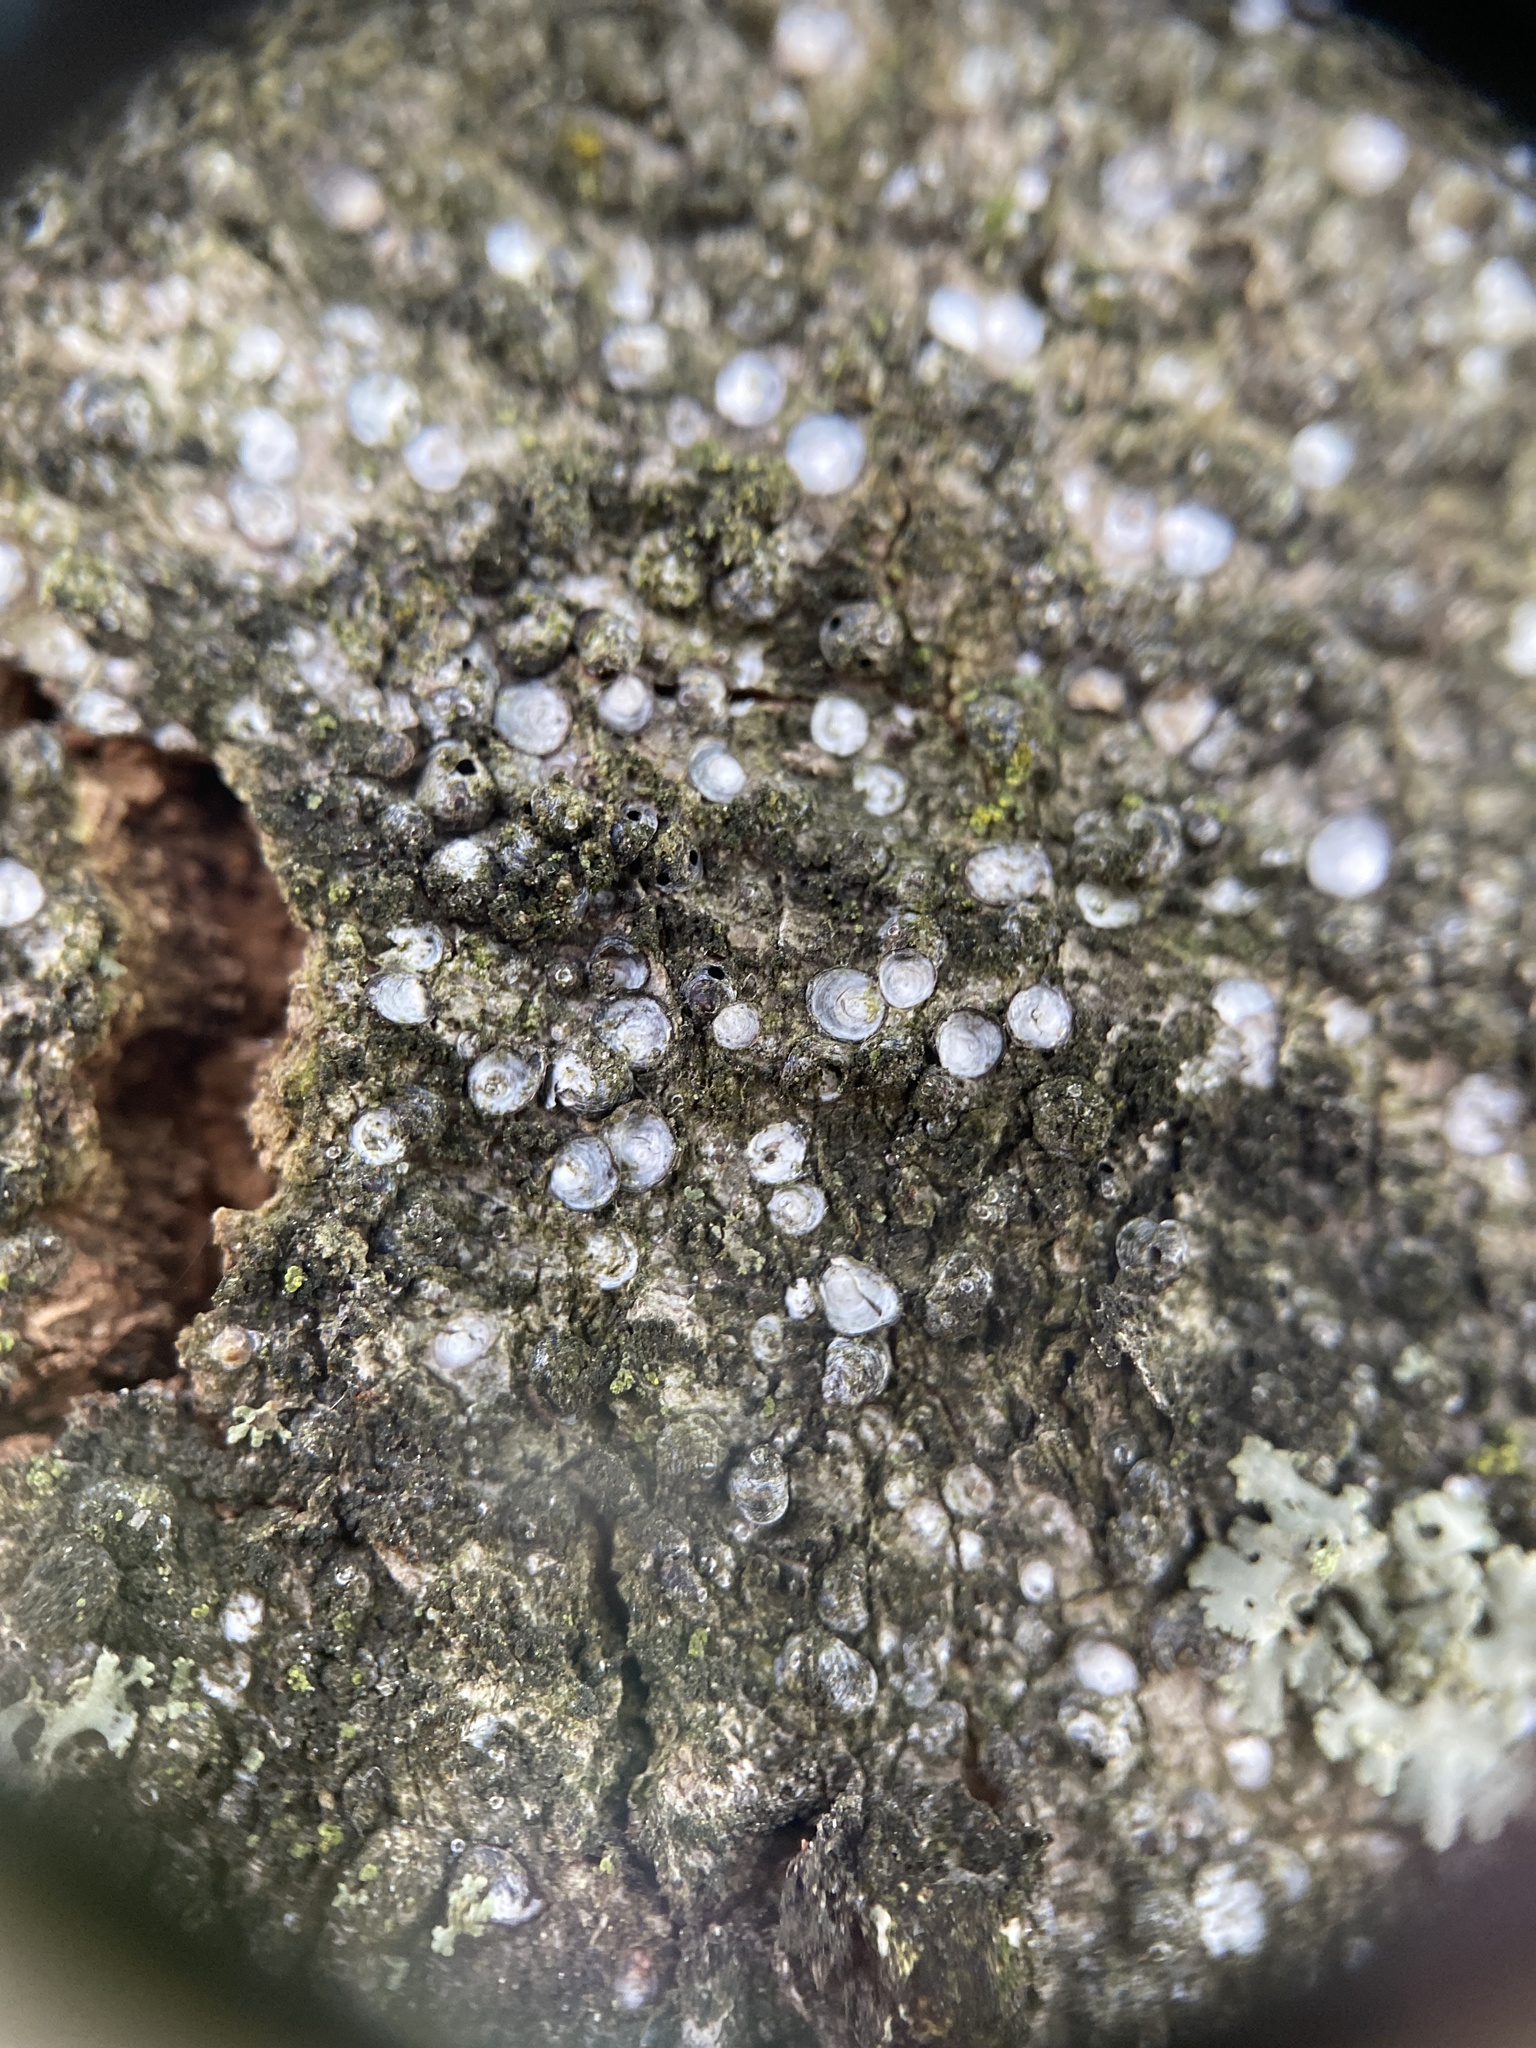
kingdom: Animalia
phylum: Arthropoda
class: Insecta
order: Hemiptera
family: Diaspididae
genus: Melanaspis
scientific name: Melanaspis tenebricosa
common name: Gloomy scale
